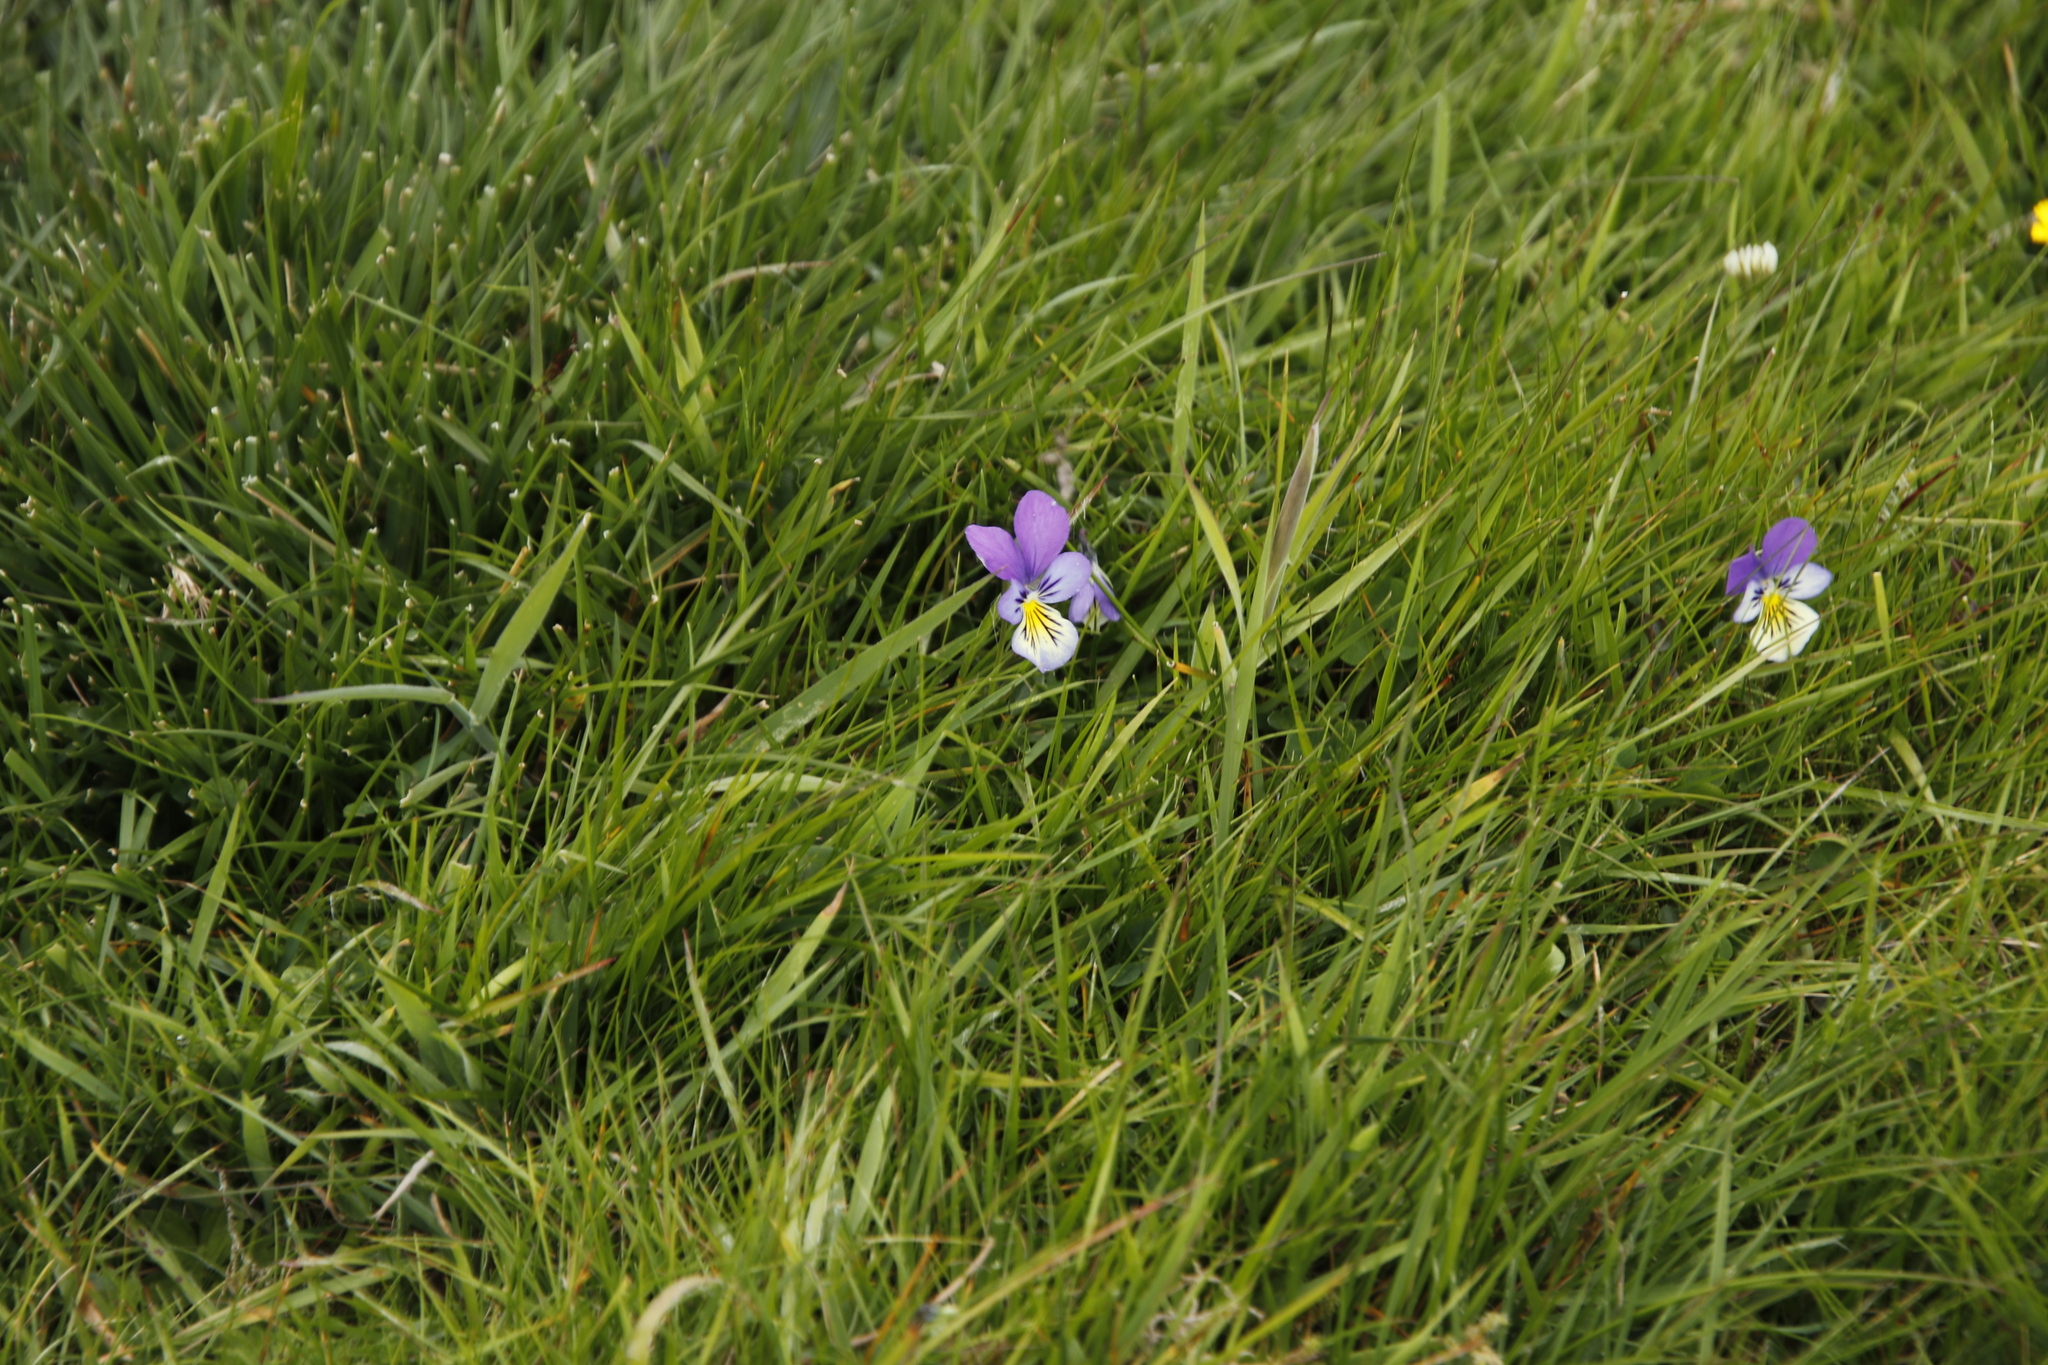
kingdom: Plantae
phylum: Tracheophyta
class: Magnoliopsida
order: Malpighiales
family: Violaceae
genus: Viola
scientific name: Viola tricolor
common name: Pansy
